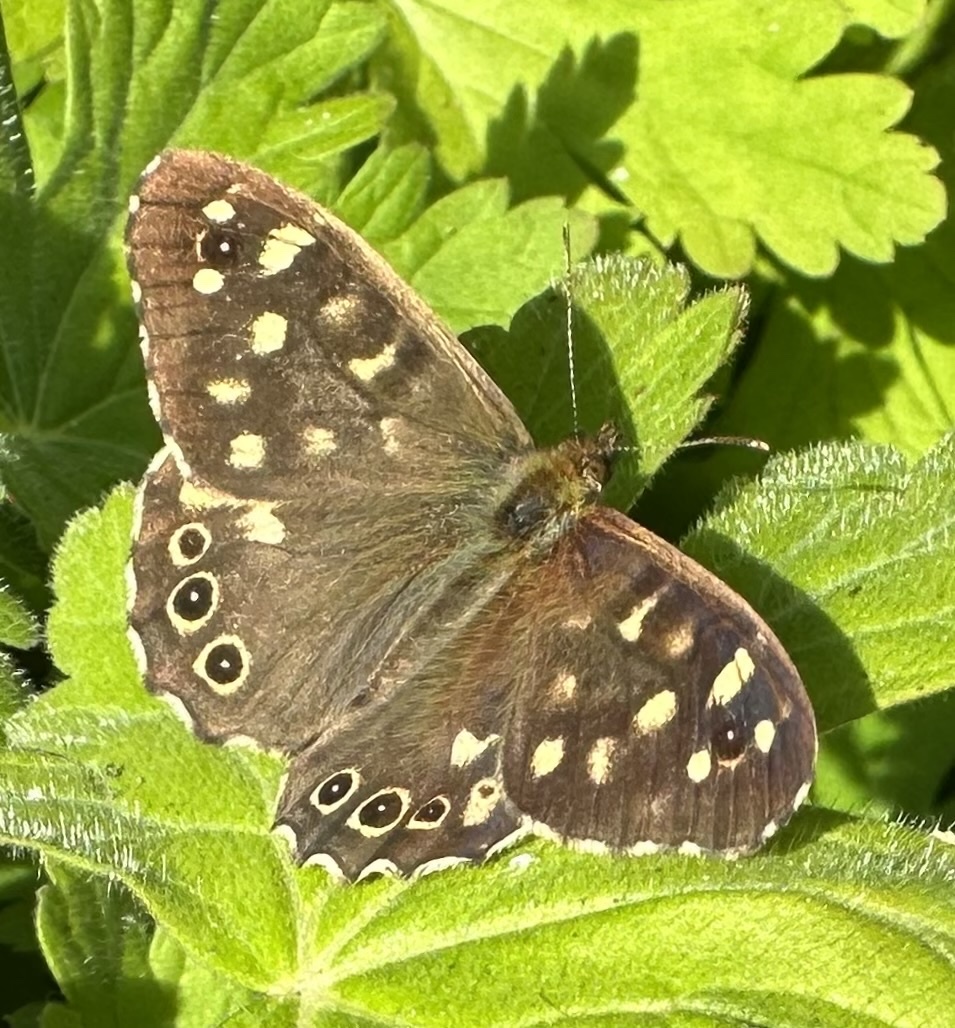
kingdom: Animalia
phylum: Arthropoda
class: Insecta
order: Lepidoptera
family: Nymphalidae
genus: Pararge
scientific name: Pararge aegeria
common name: Speckled wood
